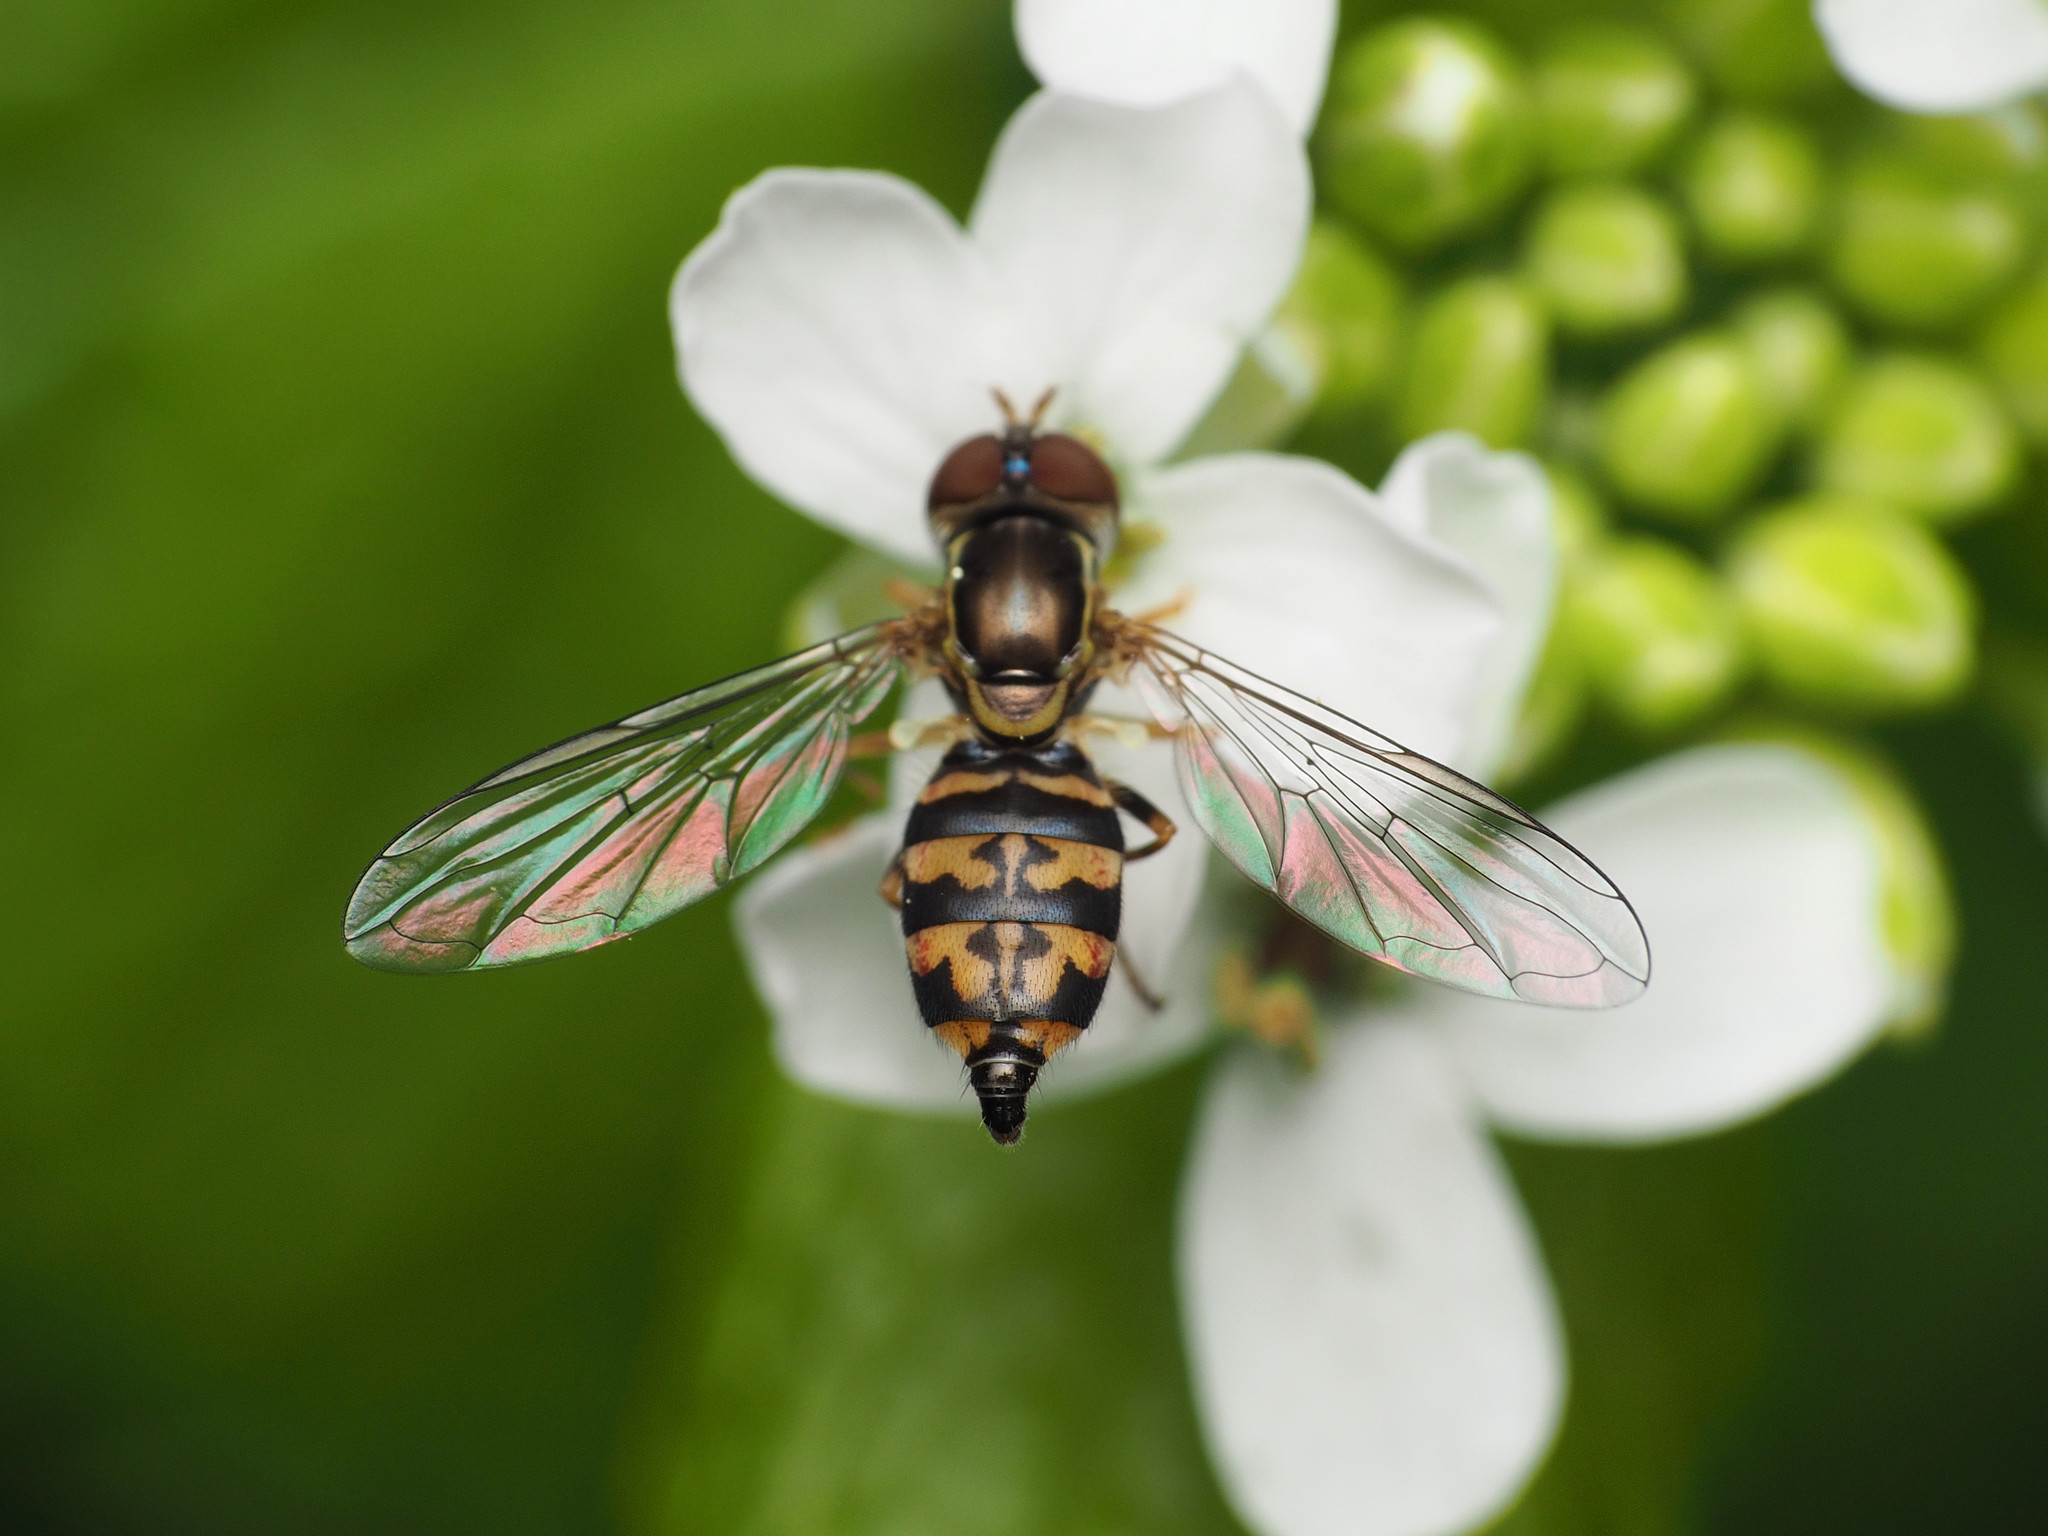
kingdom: Animalia
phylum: Arthropoda
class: Insecta
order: Diptera
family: Syrphidae
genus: Toxomerus
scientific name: Toxomerus geminatus
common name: Eastern calligrapher
